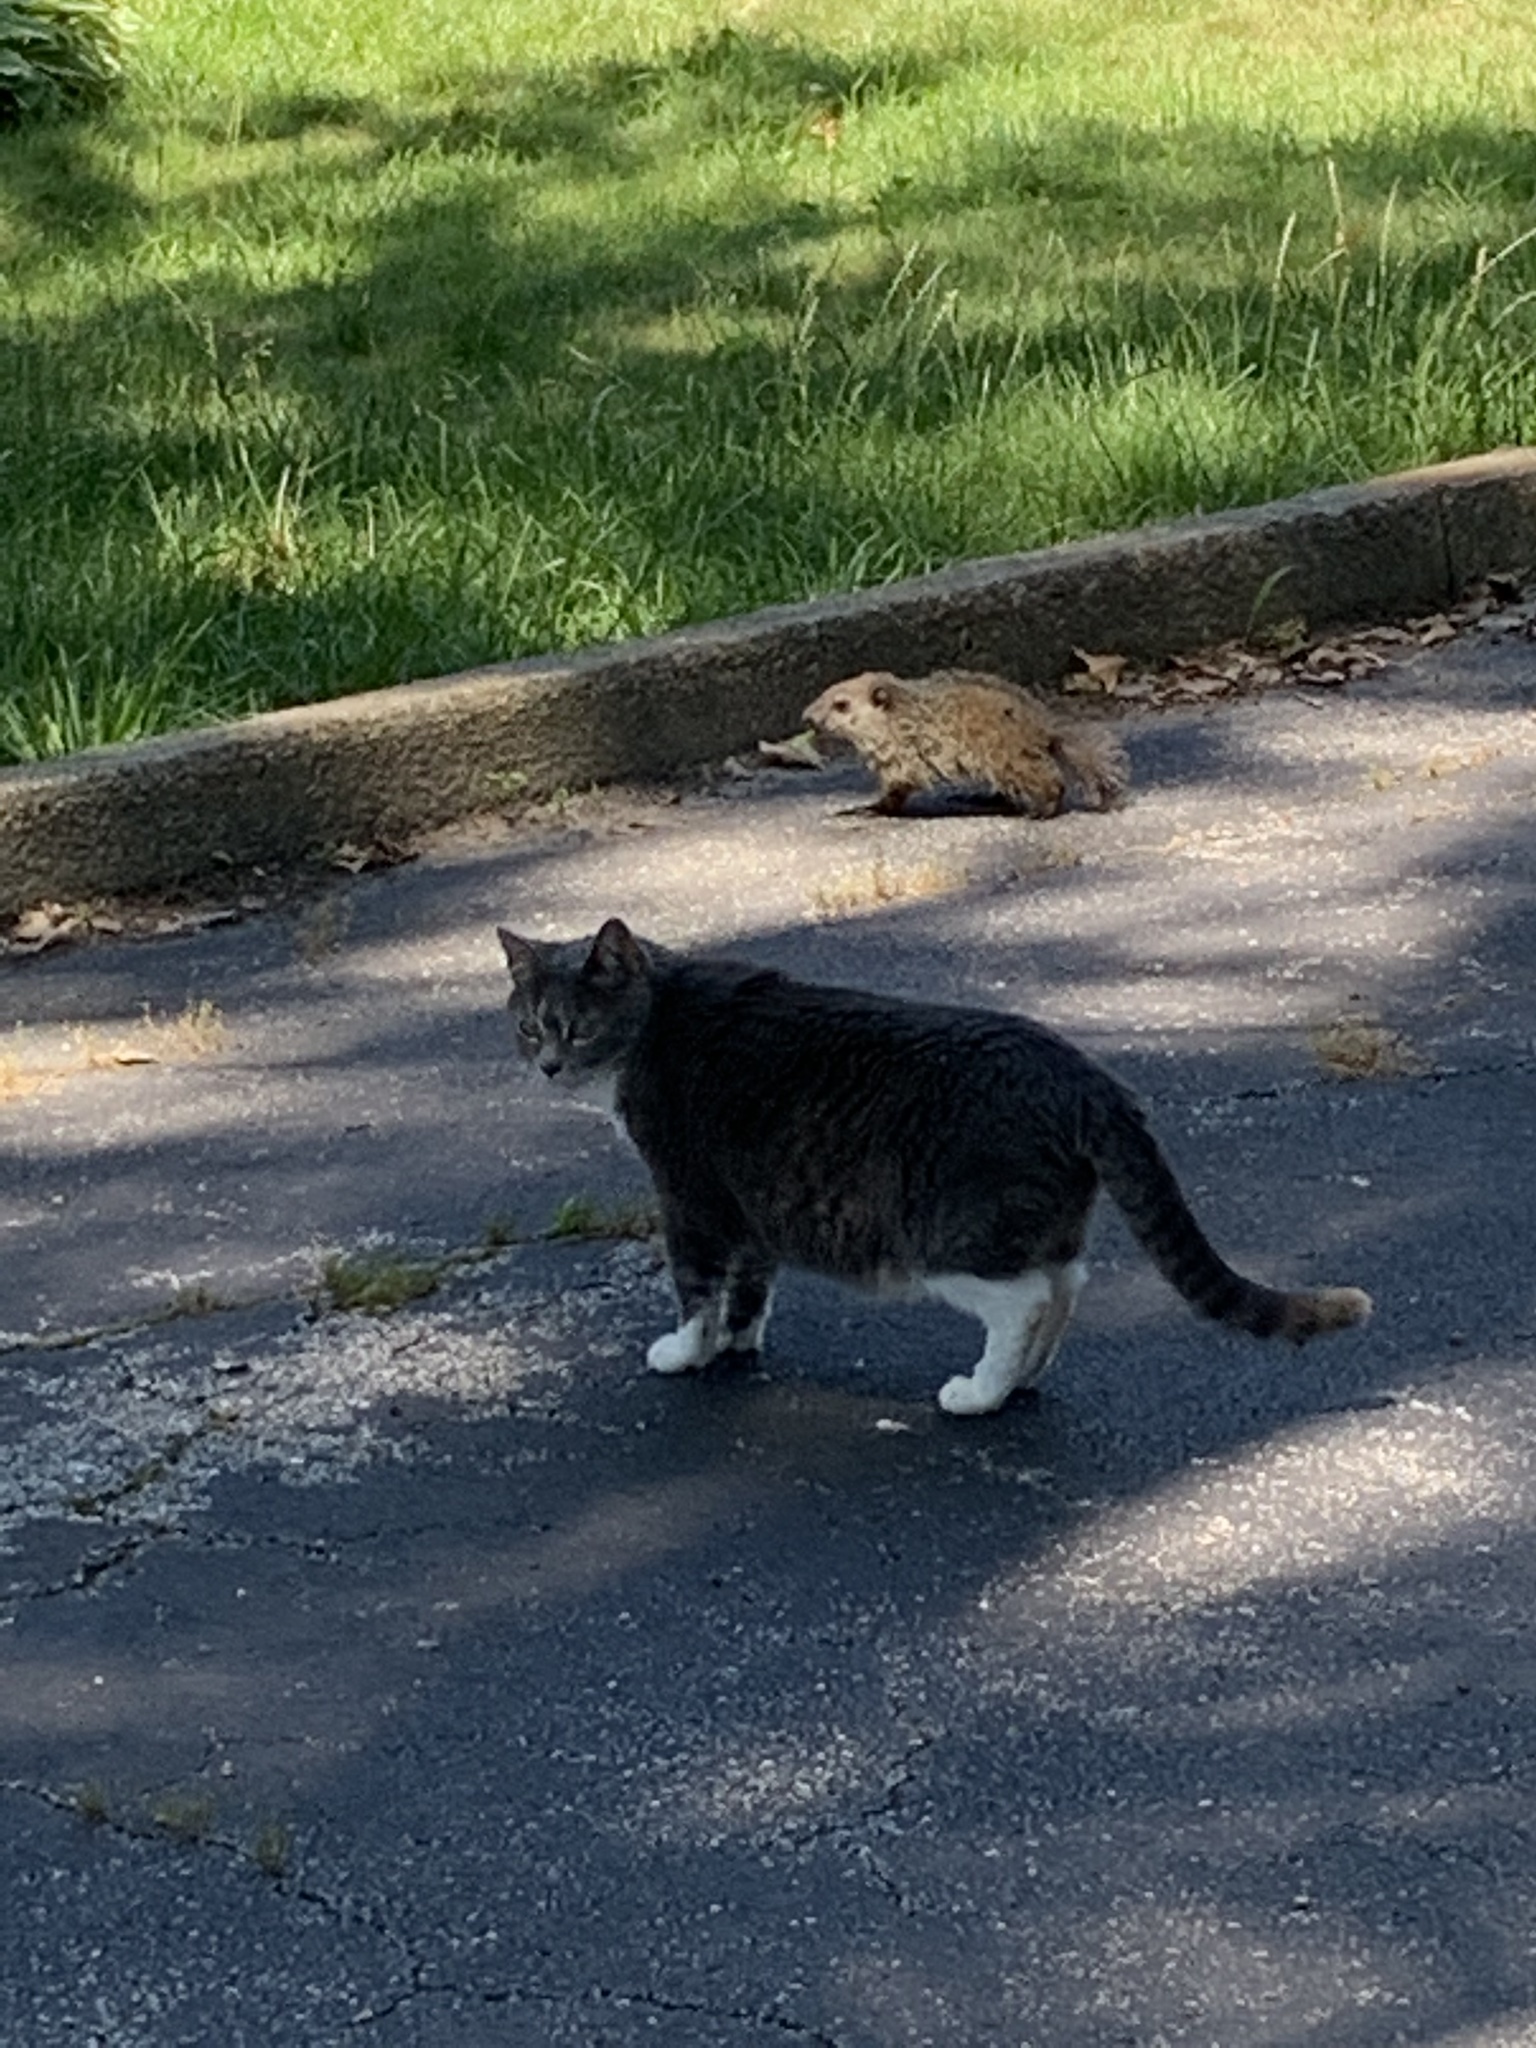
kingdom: Animalia
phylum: Chordata
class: Mammalia
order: Rodentia
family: Sciuridae
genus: Marmota
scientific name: Marmota monax
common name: Groundhog
